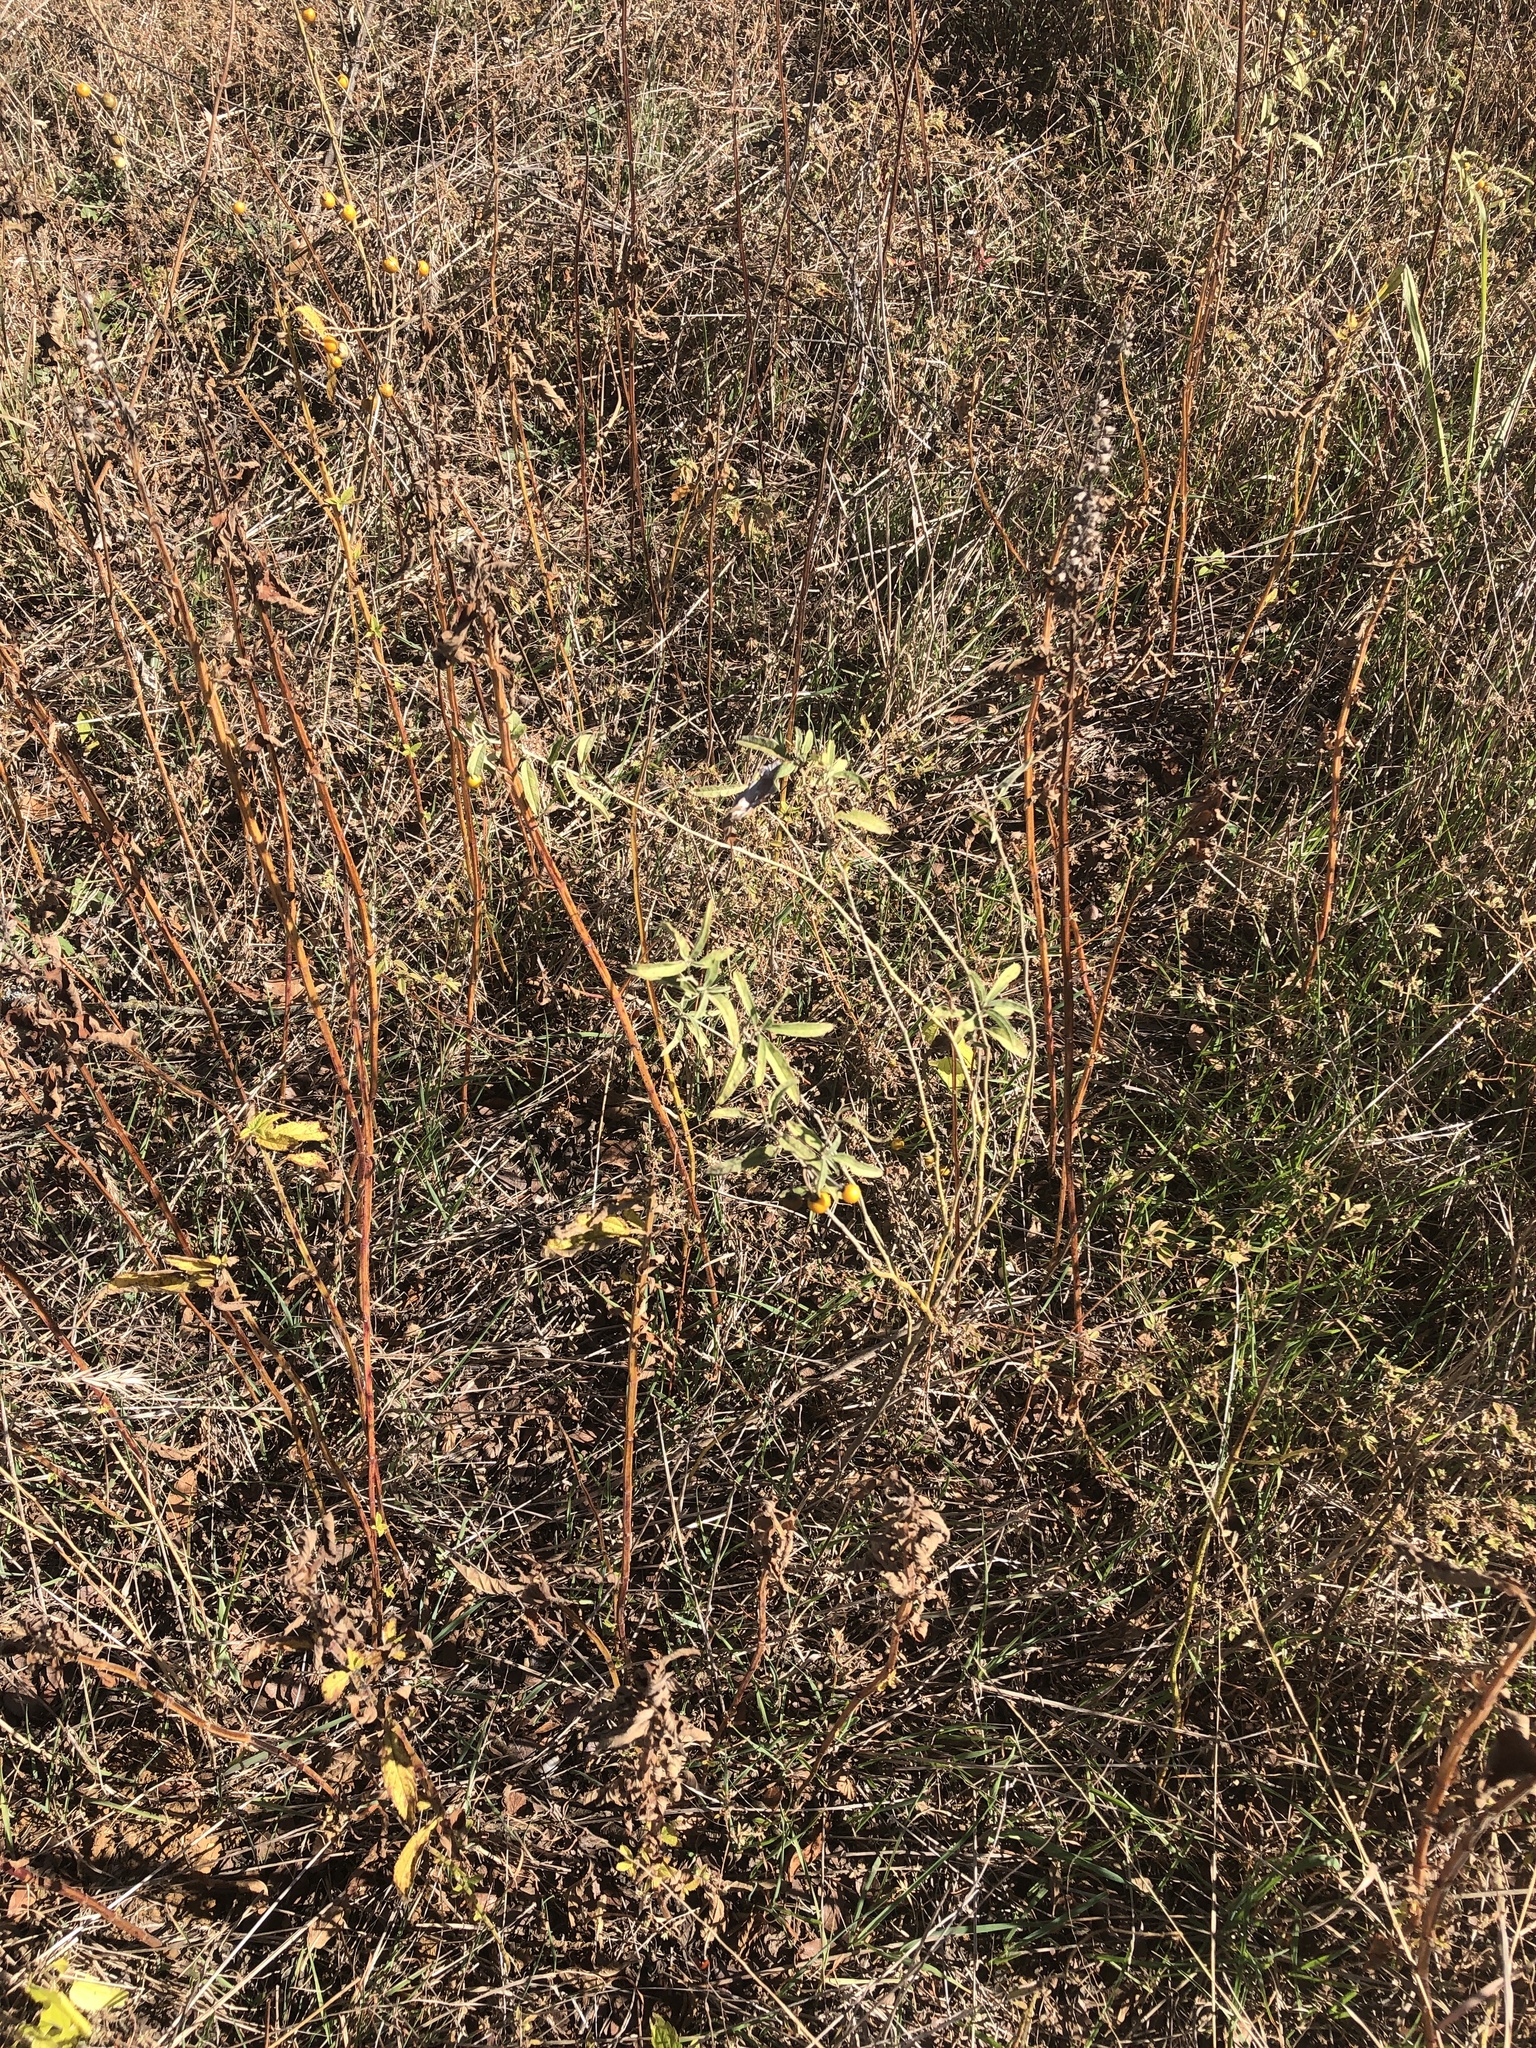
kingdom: Plantae
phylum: Tracheophyta
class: Magnoliopsida
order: Solanales
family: Solanaceae
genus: Solanum
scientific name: Solanum elaeagnifolium
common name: Silverleaf nightshade
